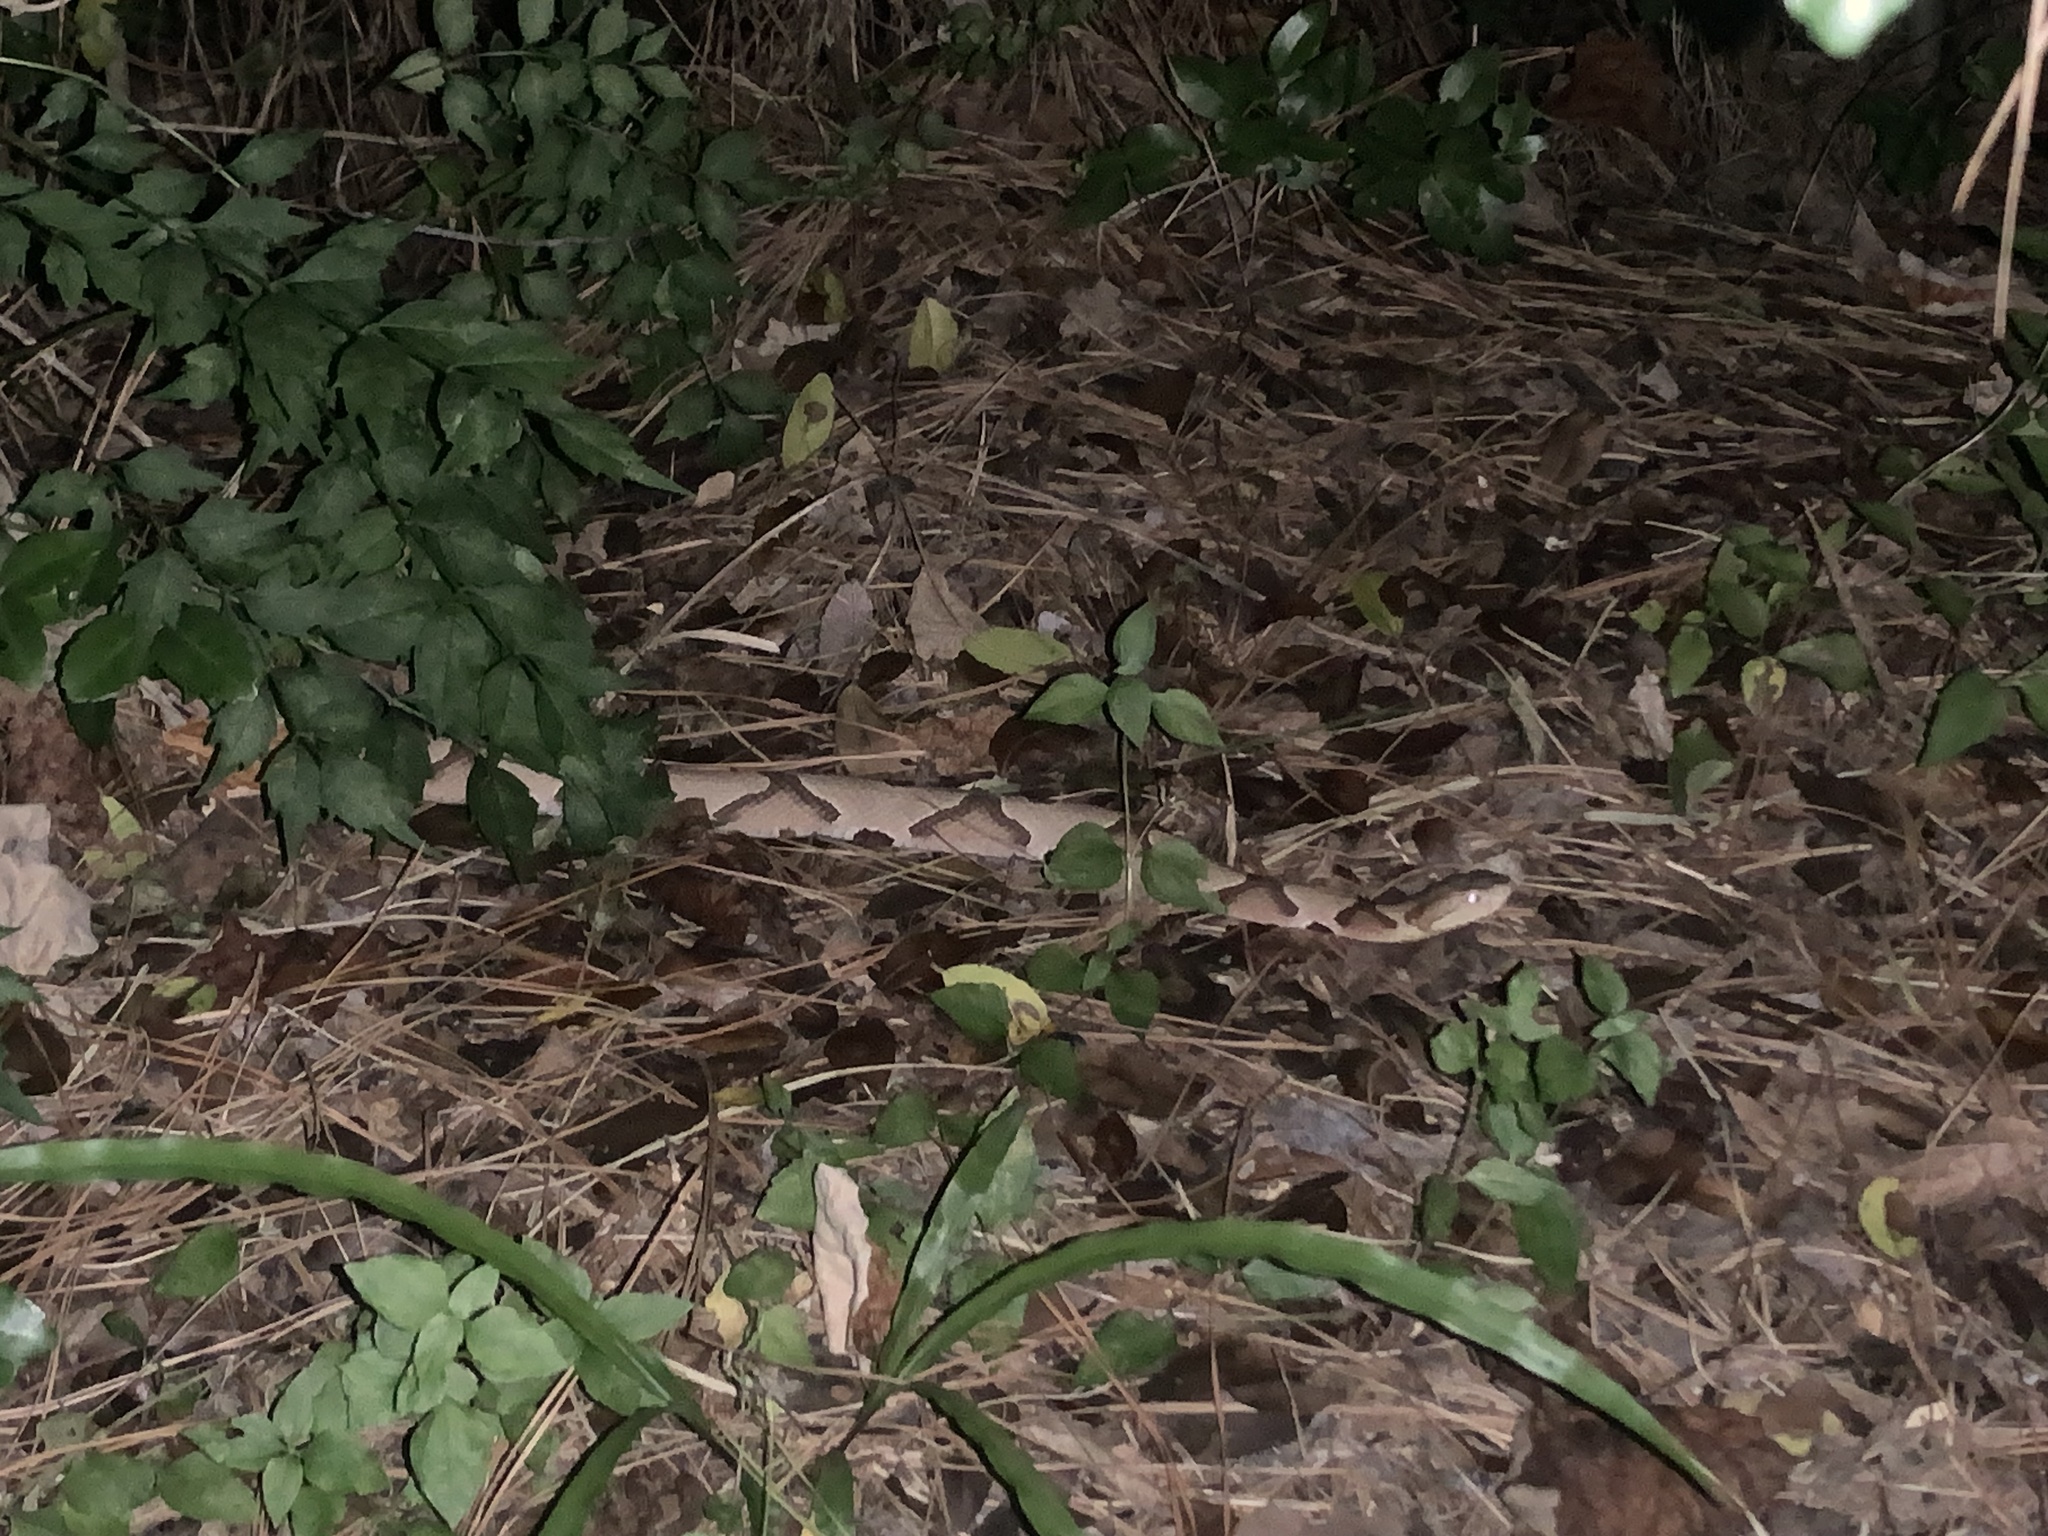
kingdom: Animalia
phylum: Chordata
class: Squamata
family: Viperidae
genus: Agkistrodon
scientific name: Agkistrodon contortrix
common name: Northern copperhead
